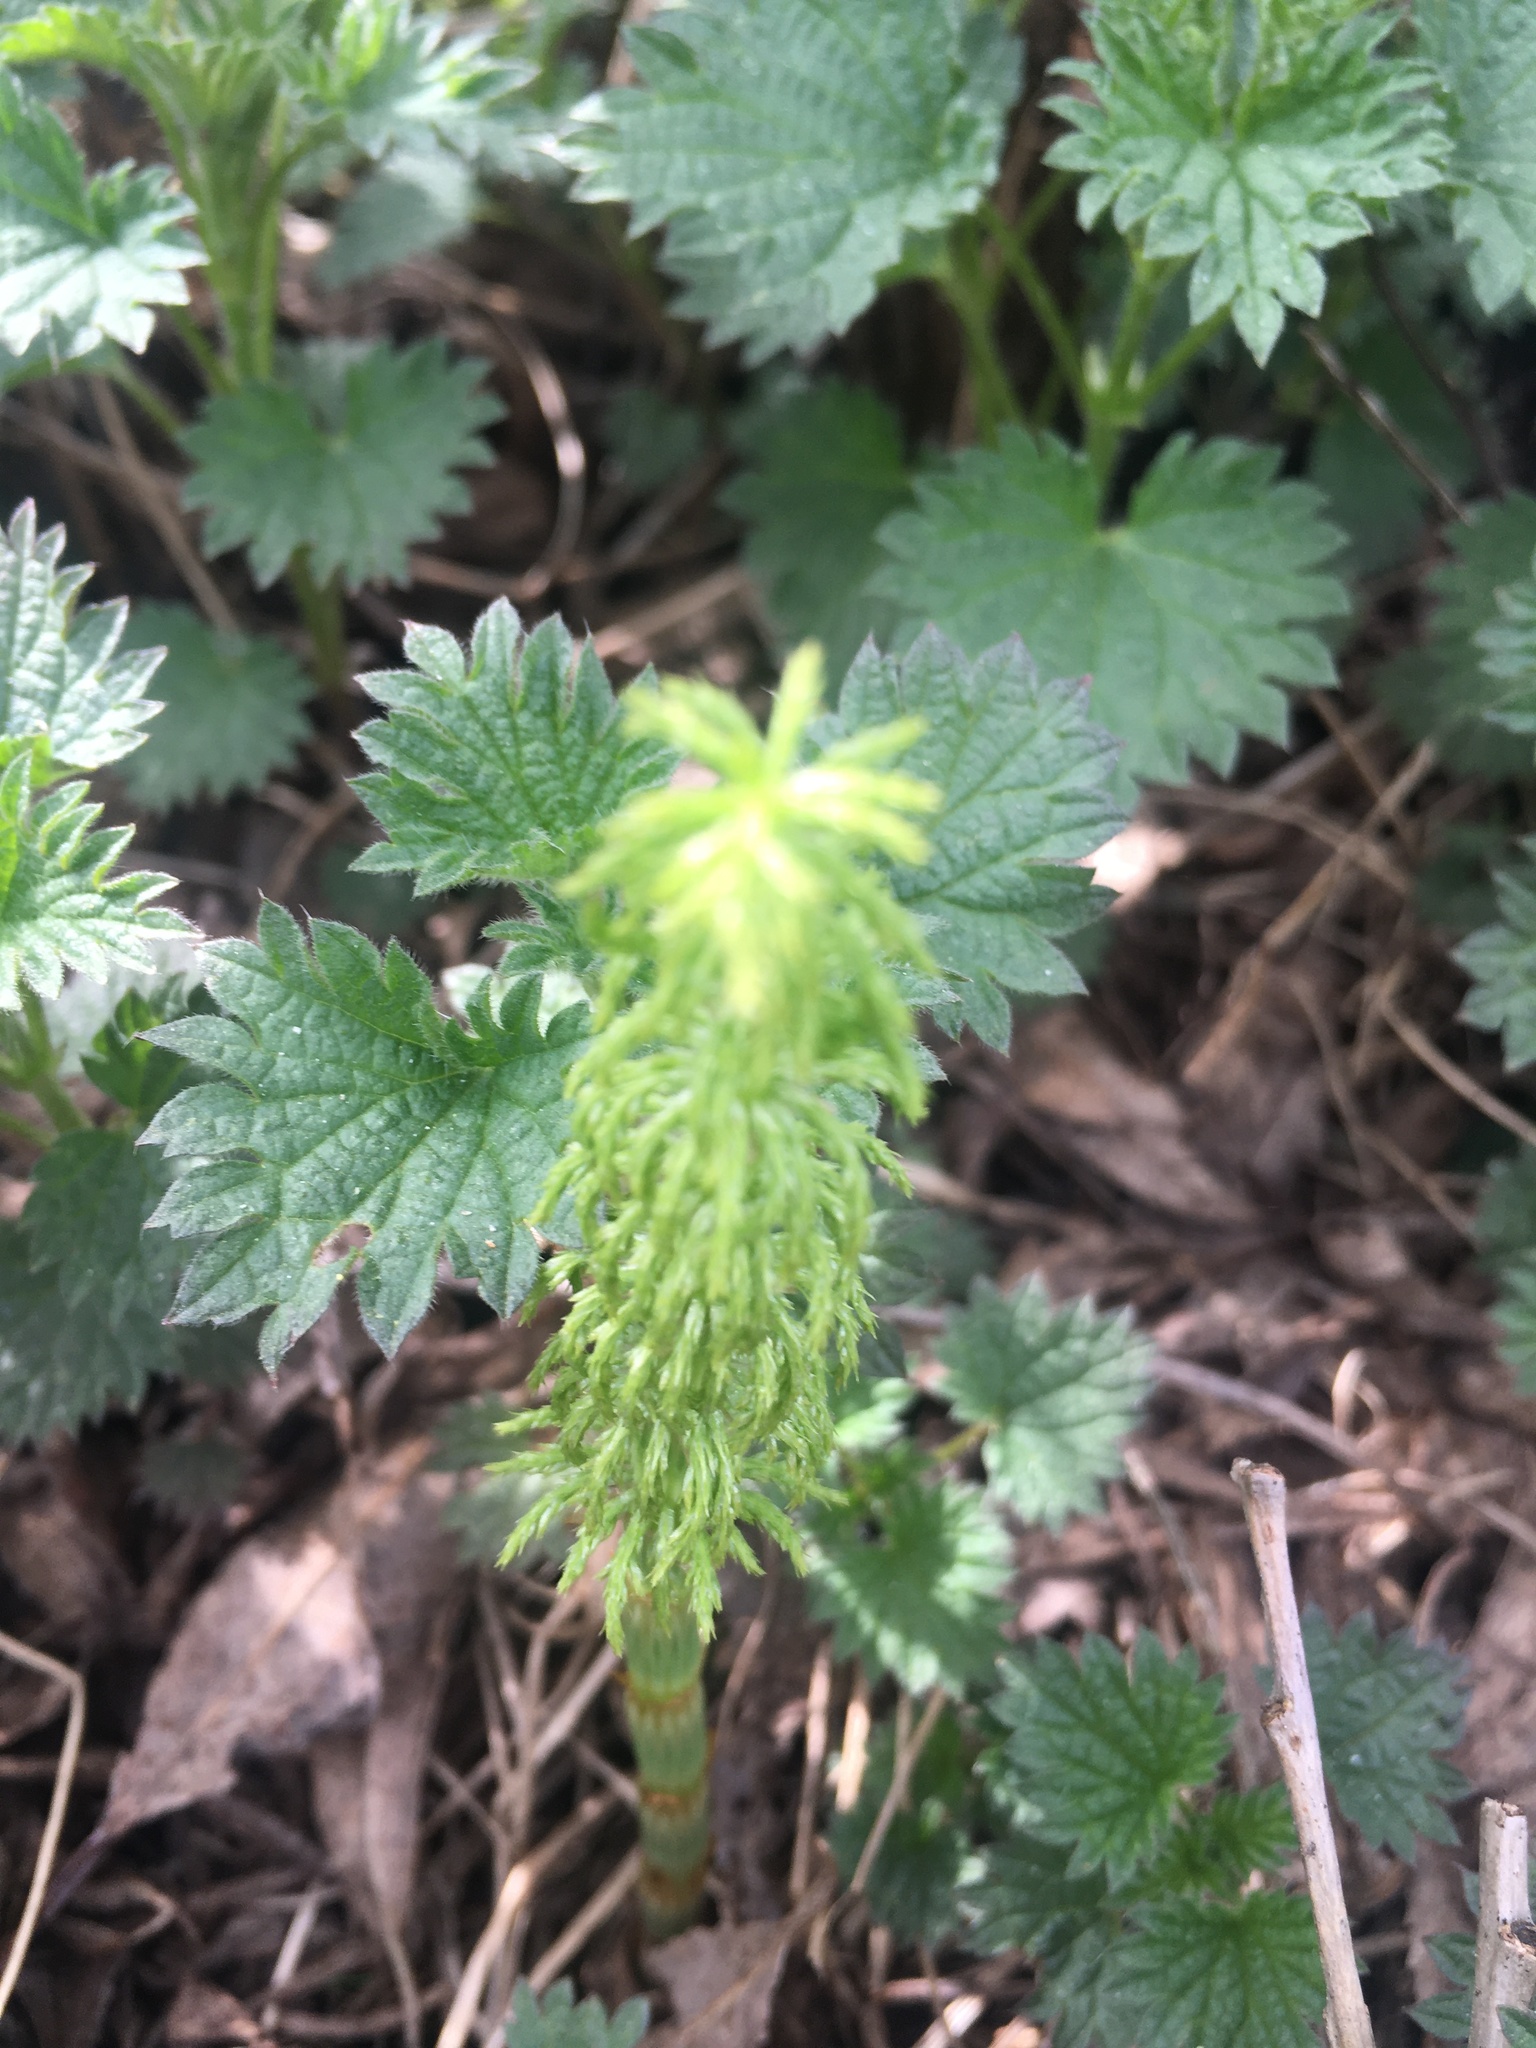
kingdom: Plantae
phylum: Tracheophyta
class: Polypodiopsida
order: Equisetales
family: Equisetaceae
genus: Equisetum
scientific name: Equisetum sylvaticum
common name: Wood horsetail
